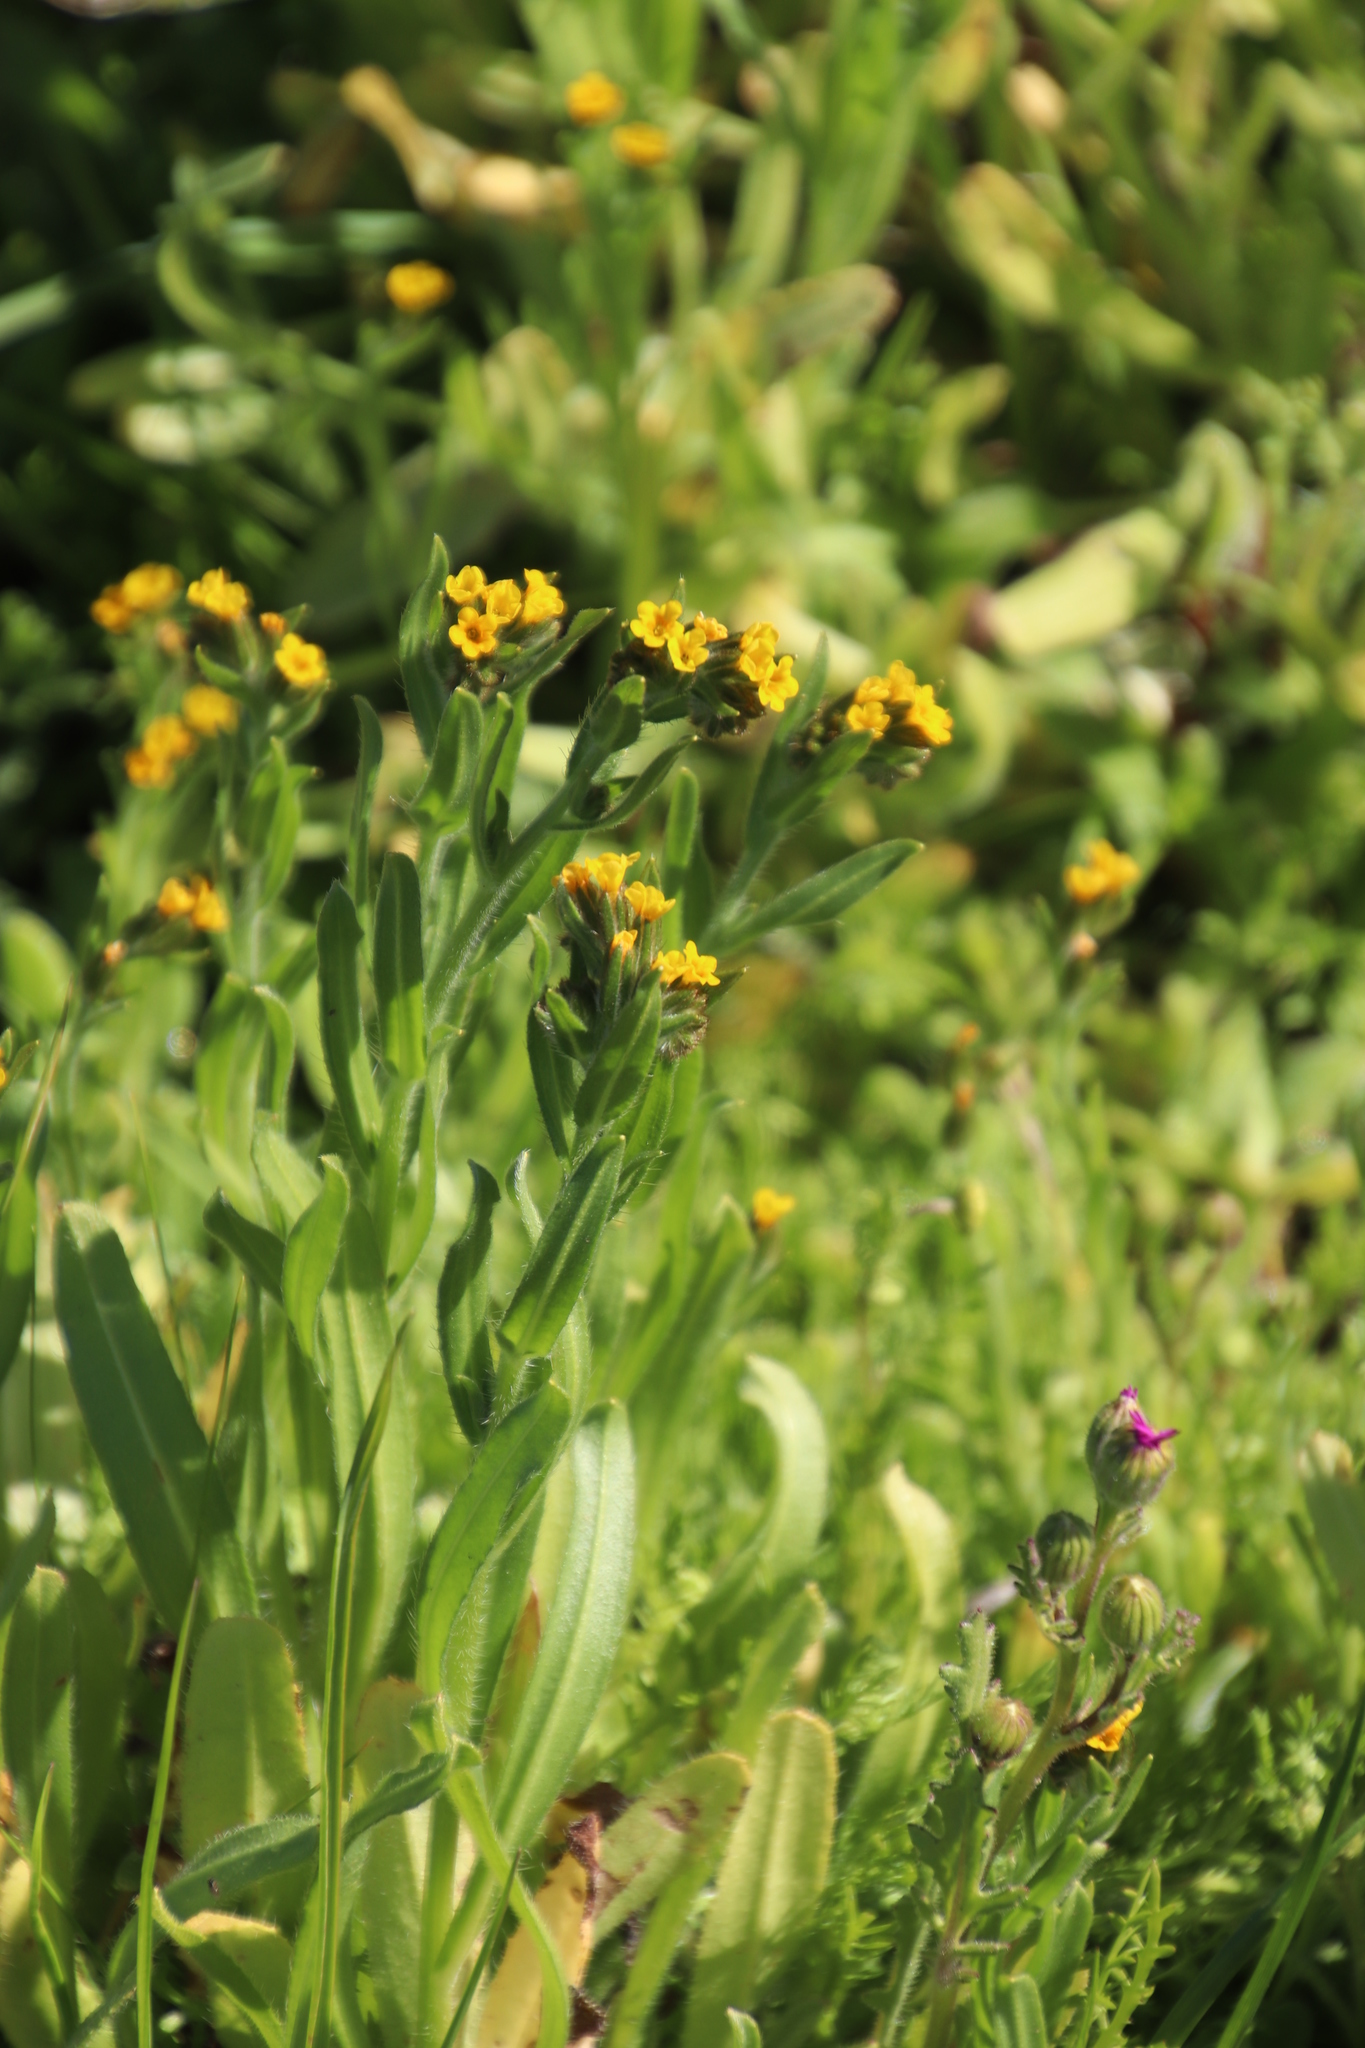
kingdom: Plantae
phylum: Tracheophyta
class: Magnoliopsida
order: Boraginales
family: Boraginaceae
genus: Amsinckia
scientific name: Amsinckia menziesii
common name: Menzies' fiddleneck
